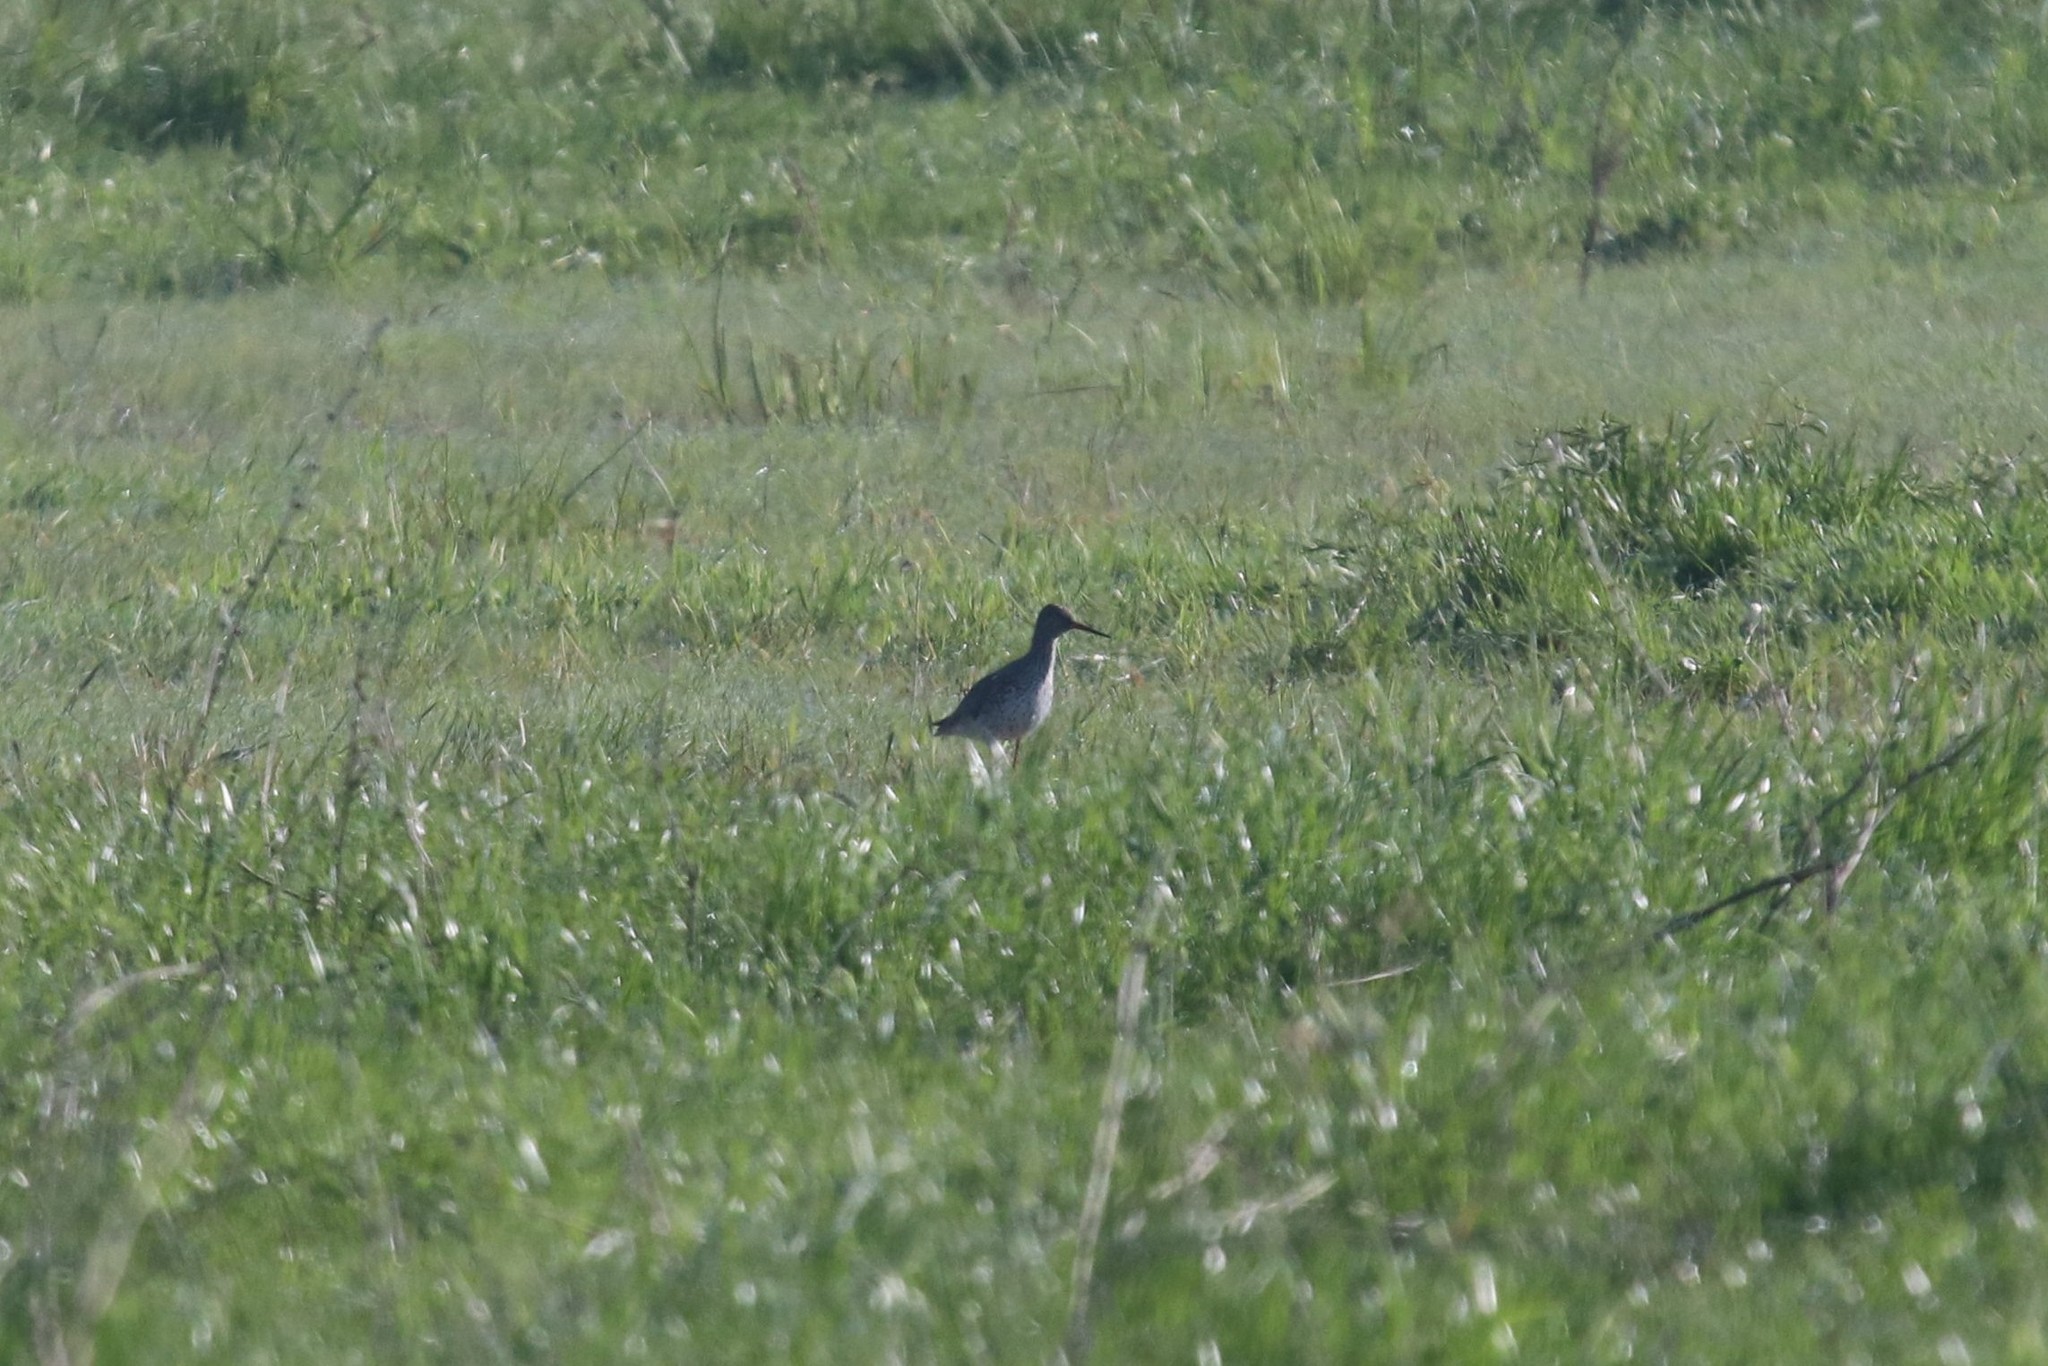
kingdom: Animalia
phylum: Chordata
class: Aves
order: Charadriiformes
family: Scolopacidae
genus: Tringa
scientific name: Tringa totanus
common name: Common redshank
